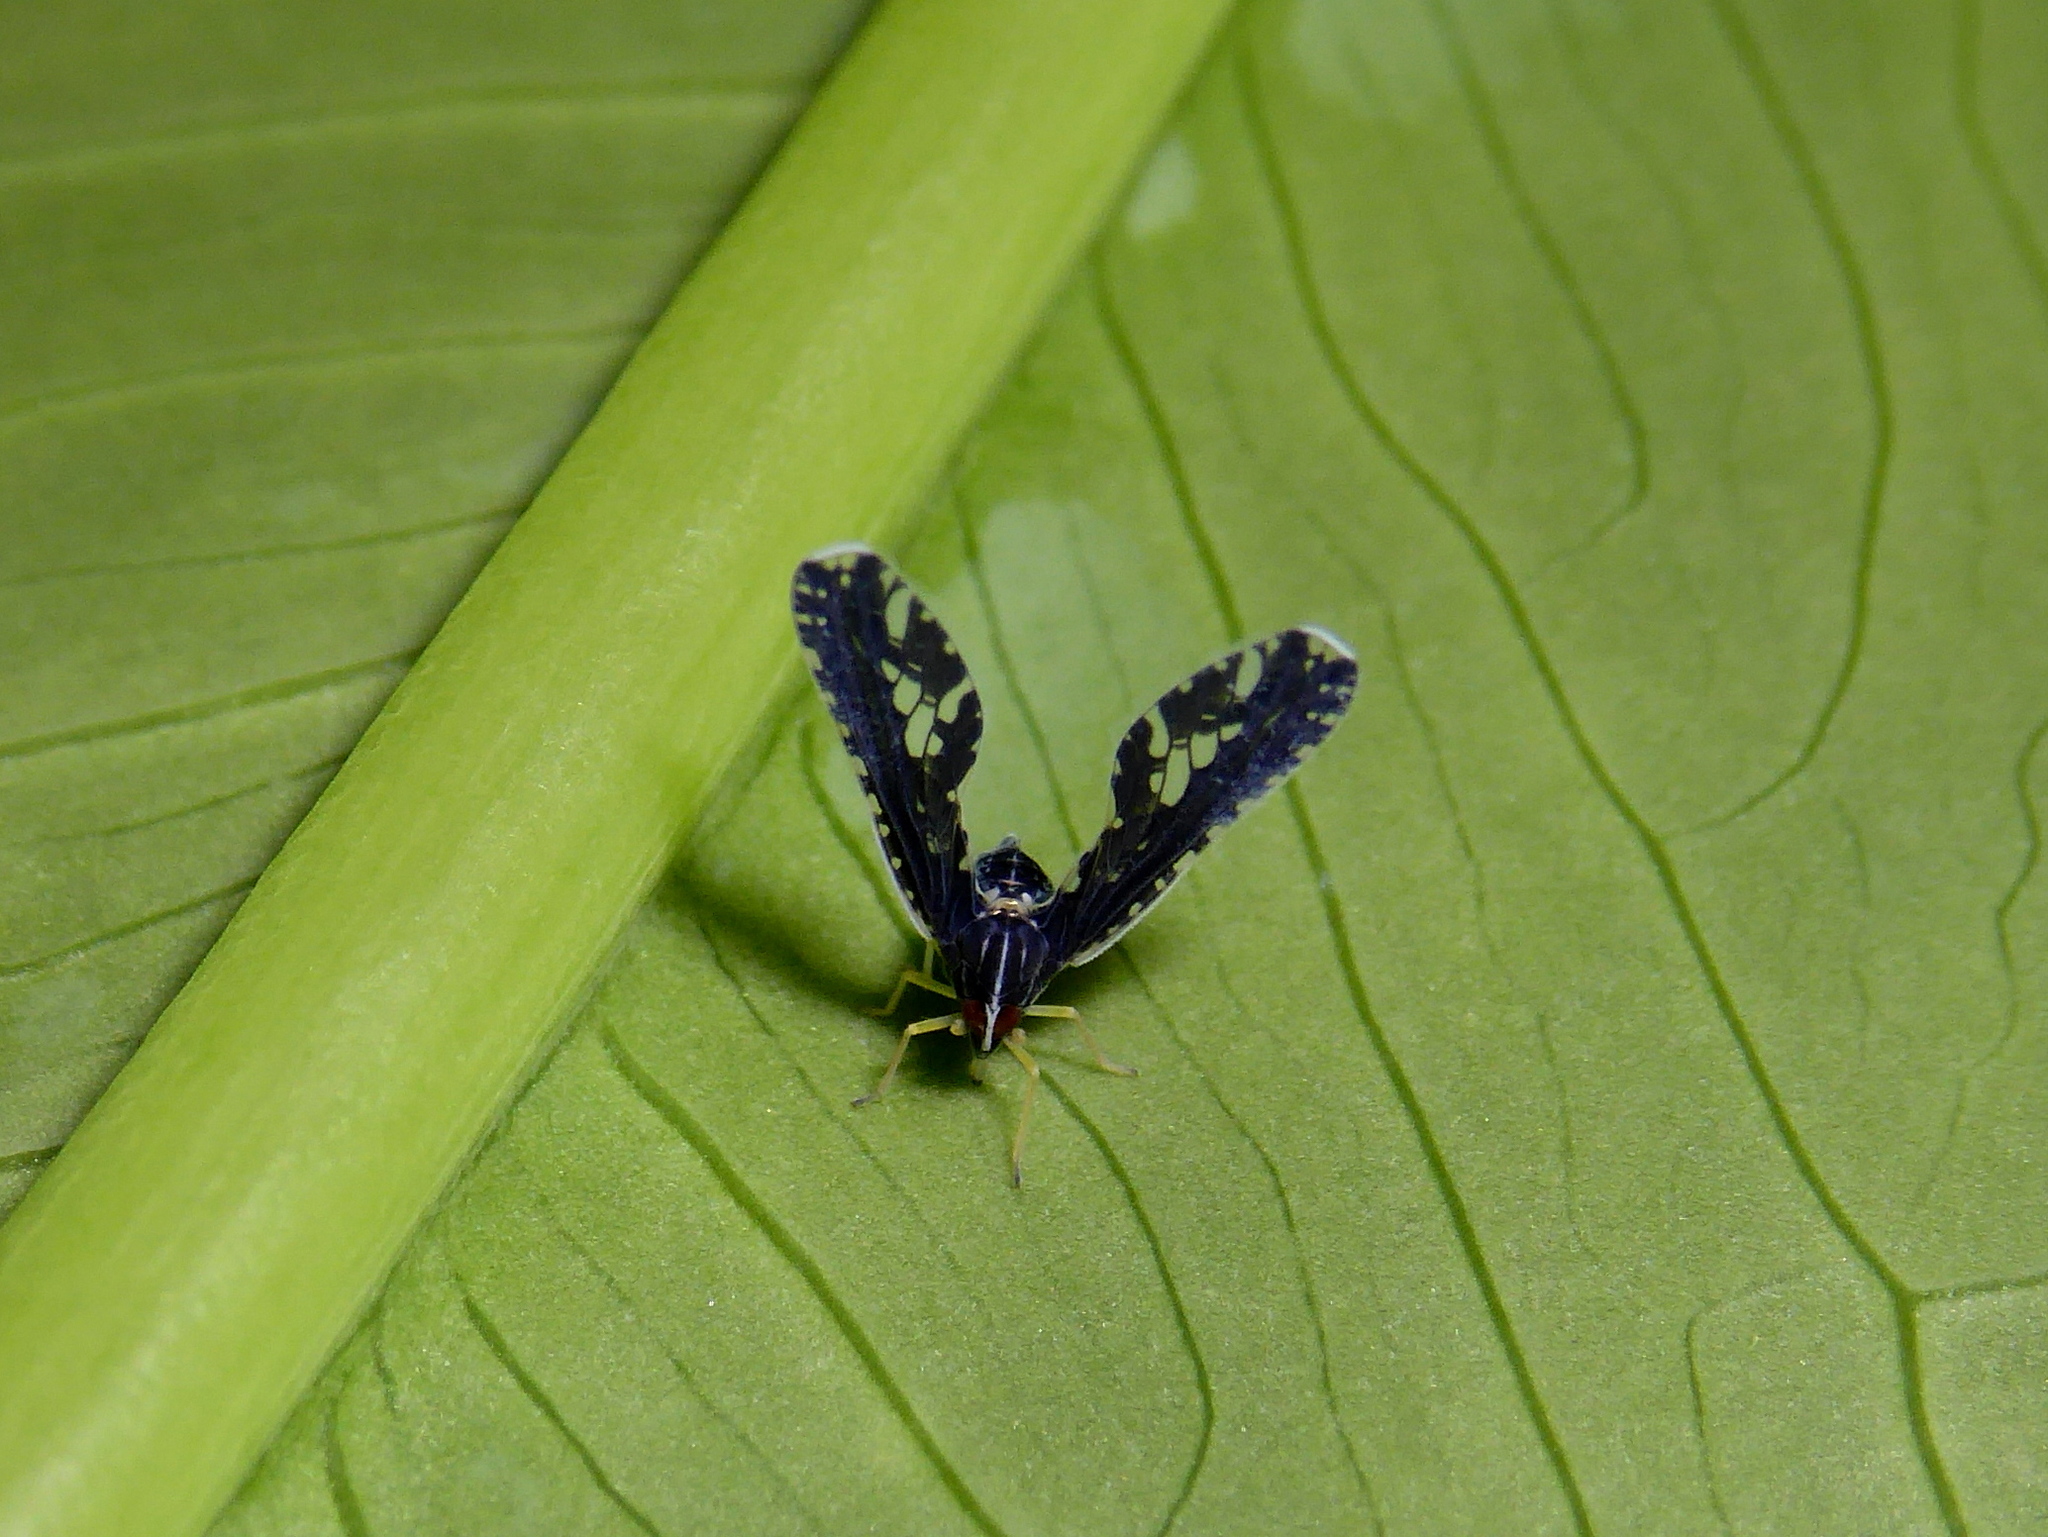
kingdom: Animalia
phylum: Arthropoda
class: Insecta
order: Hemiptera
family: Derbidae
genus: Proutista
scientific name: Proutista moesta
